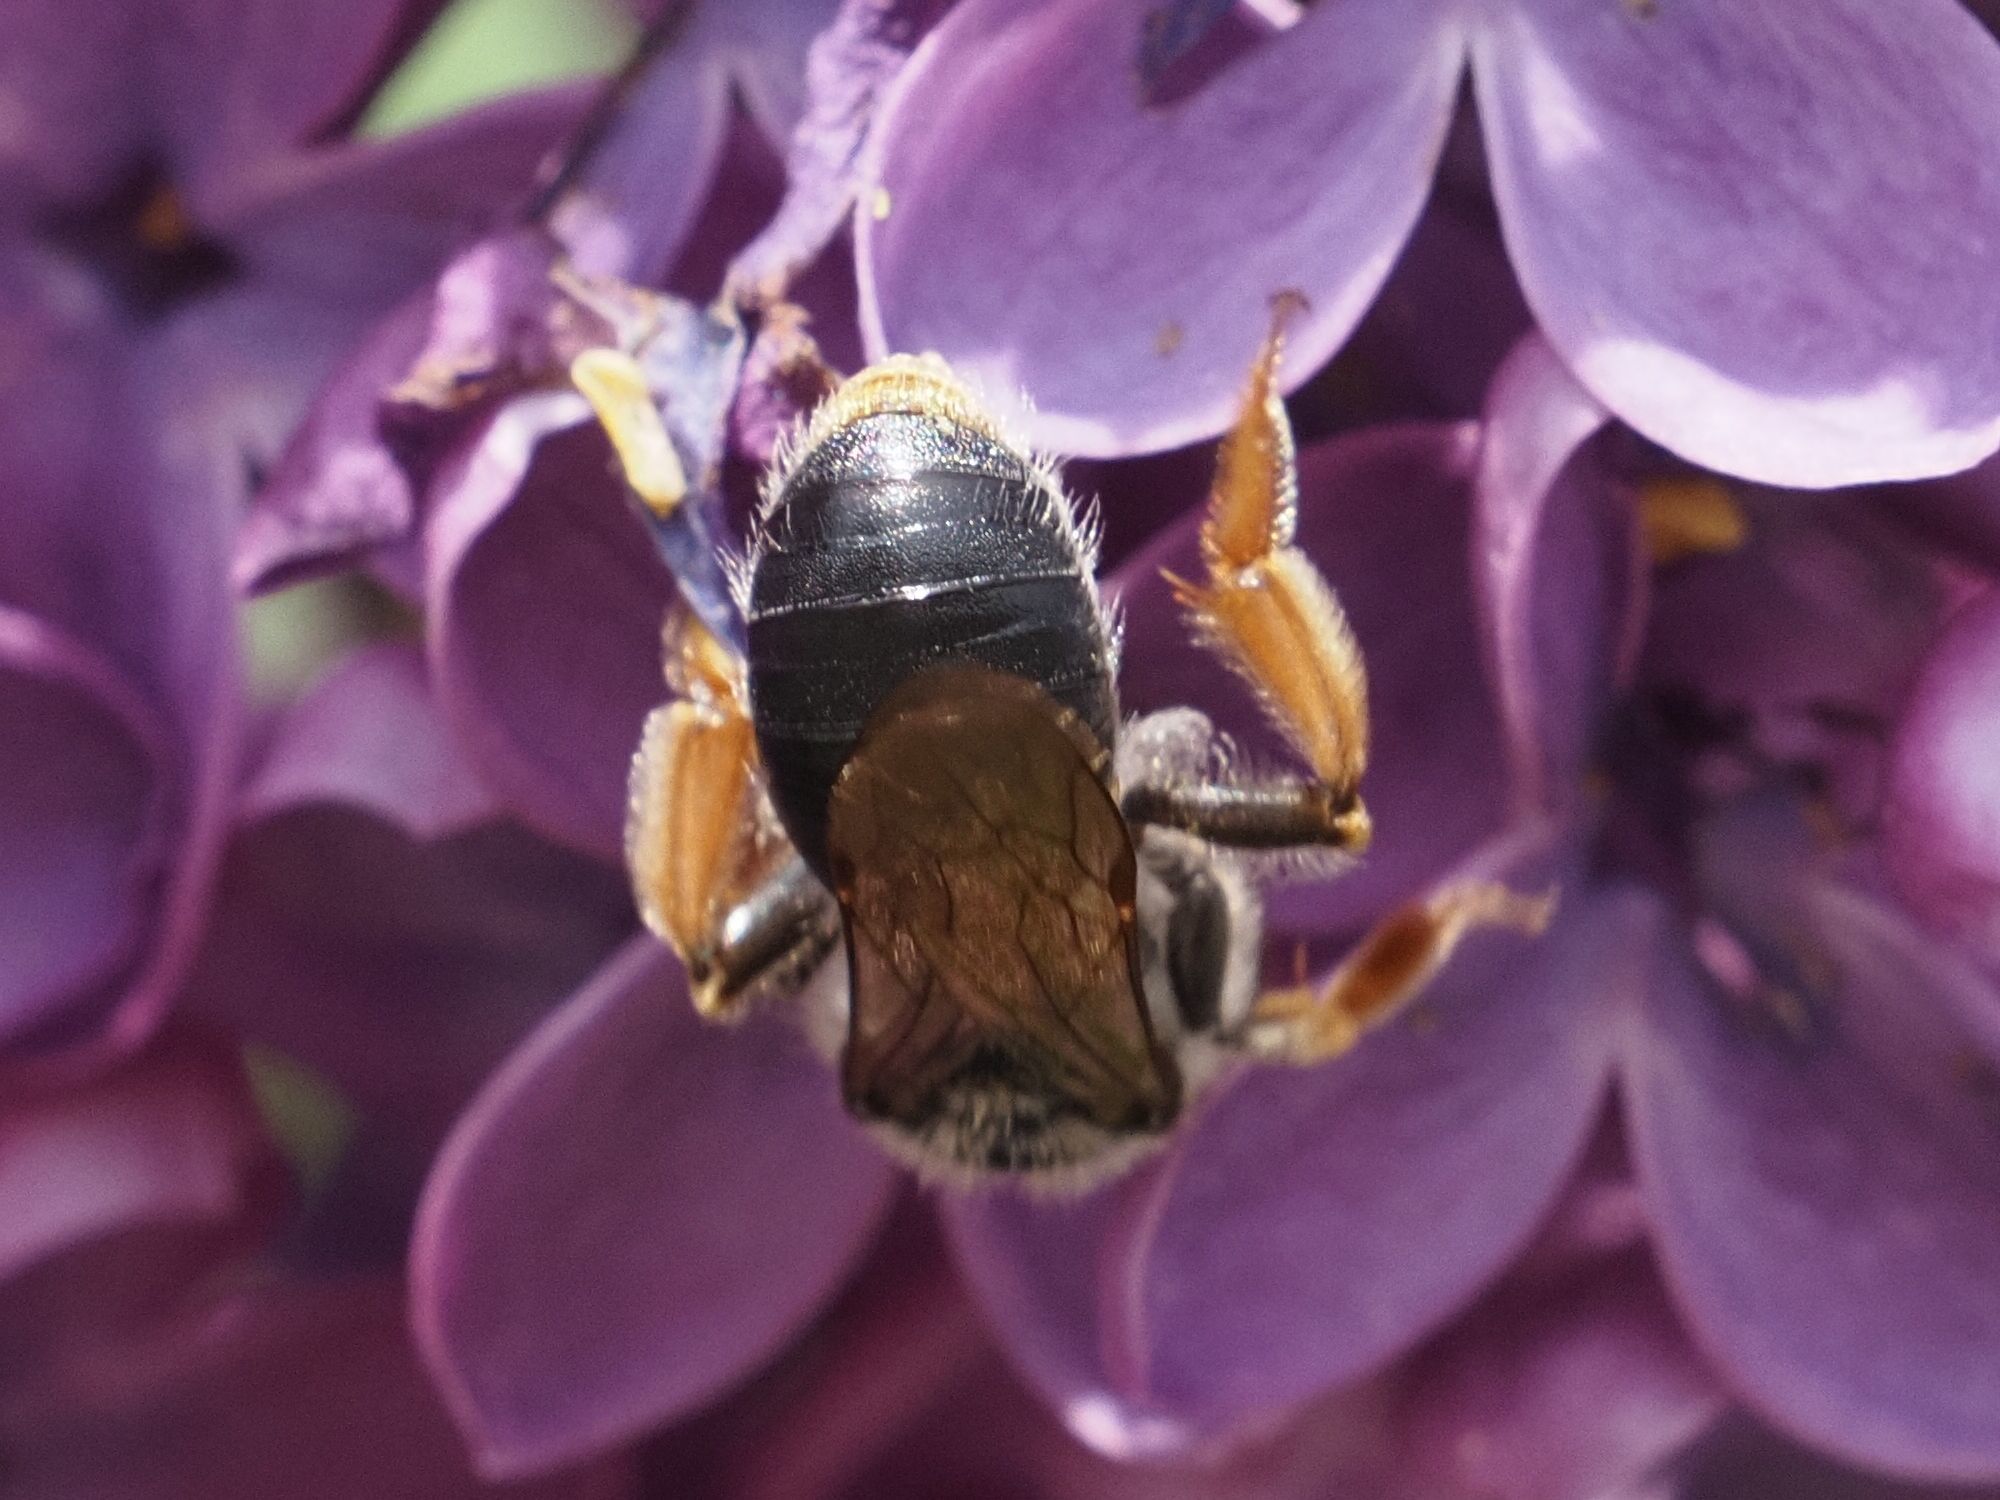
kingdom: Animalia
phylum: Arthropoda
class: Insecta
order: Hymenoptera
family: Andrenidae
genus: Andrena
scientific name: Andrena haemorrhoa
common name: Early mining bee
